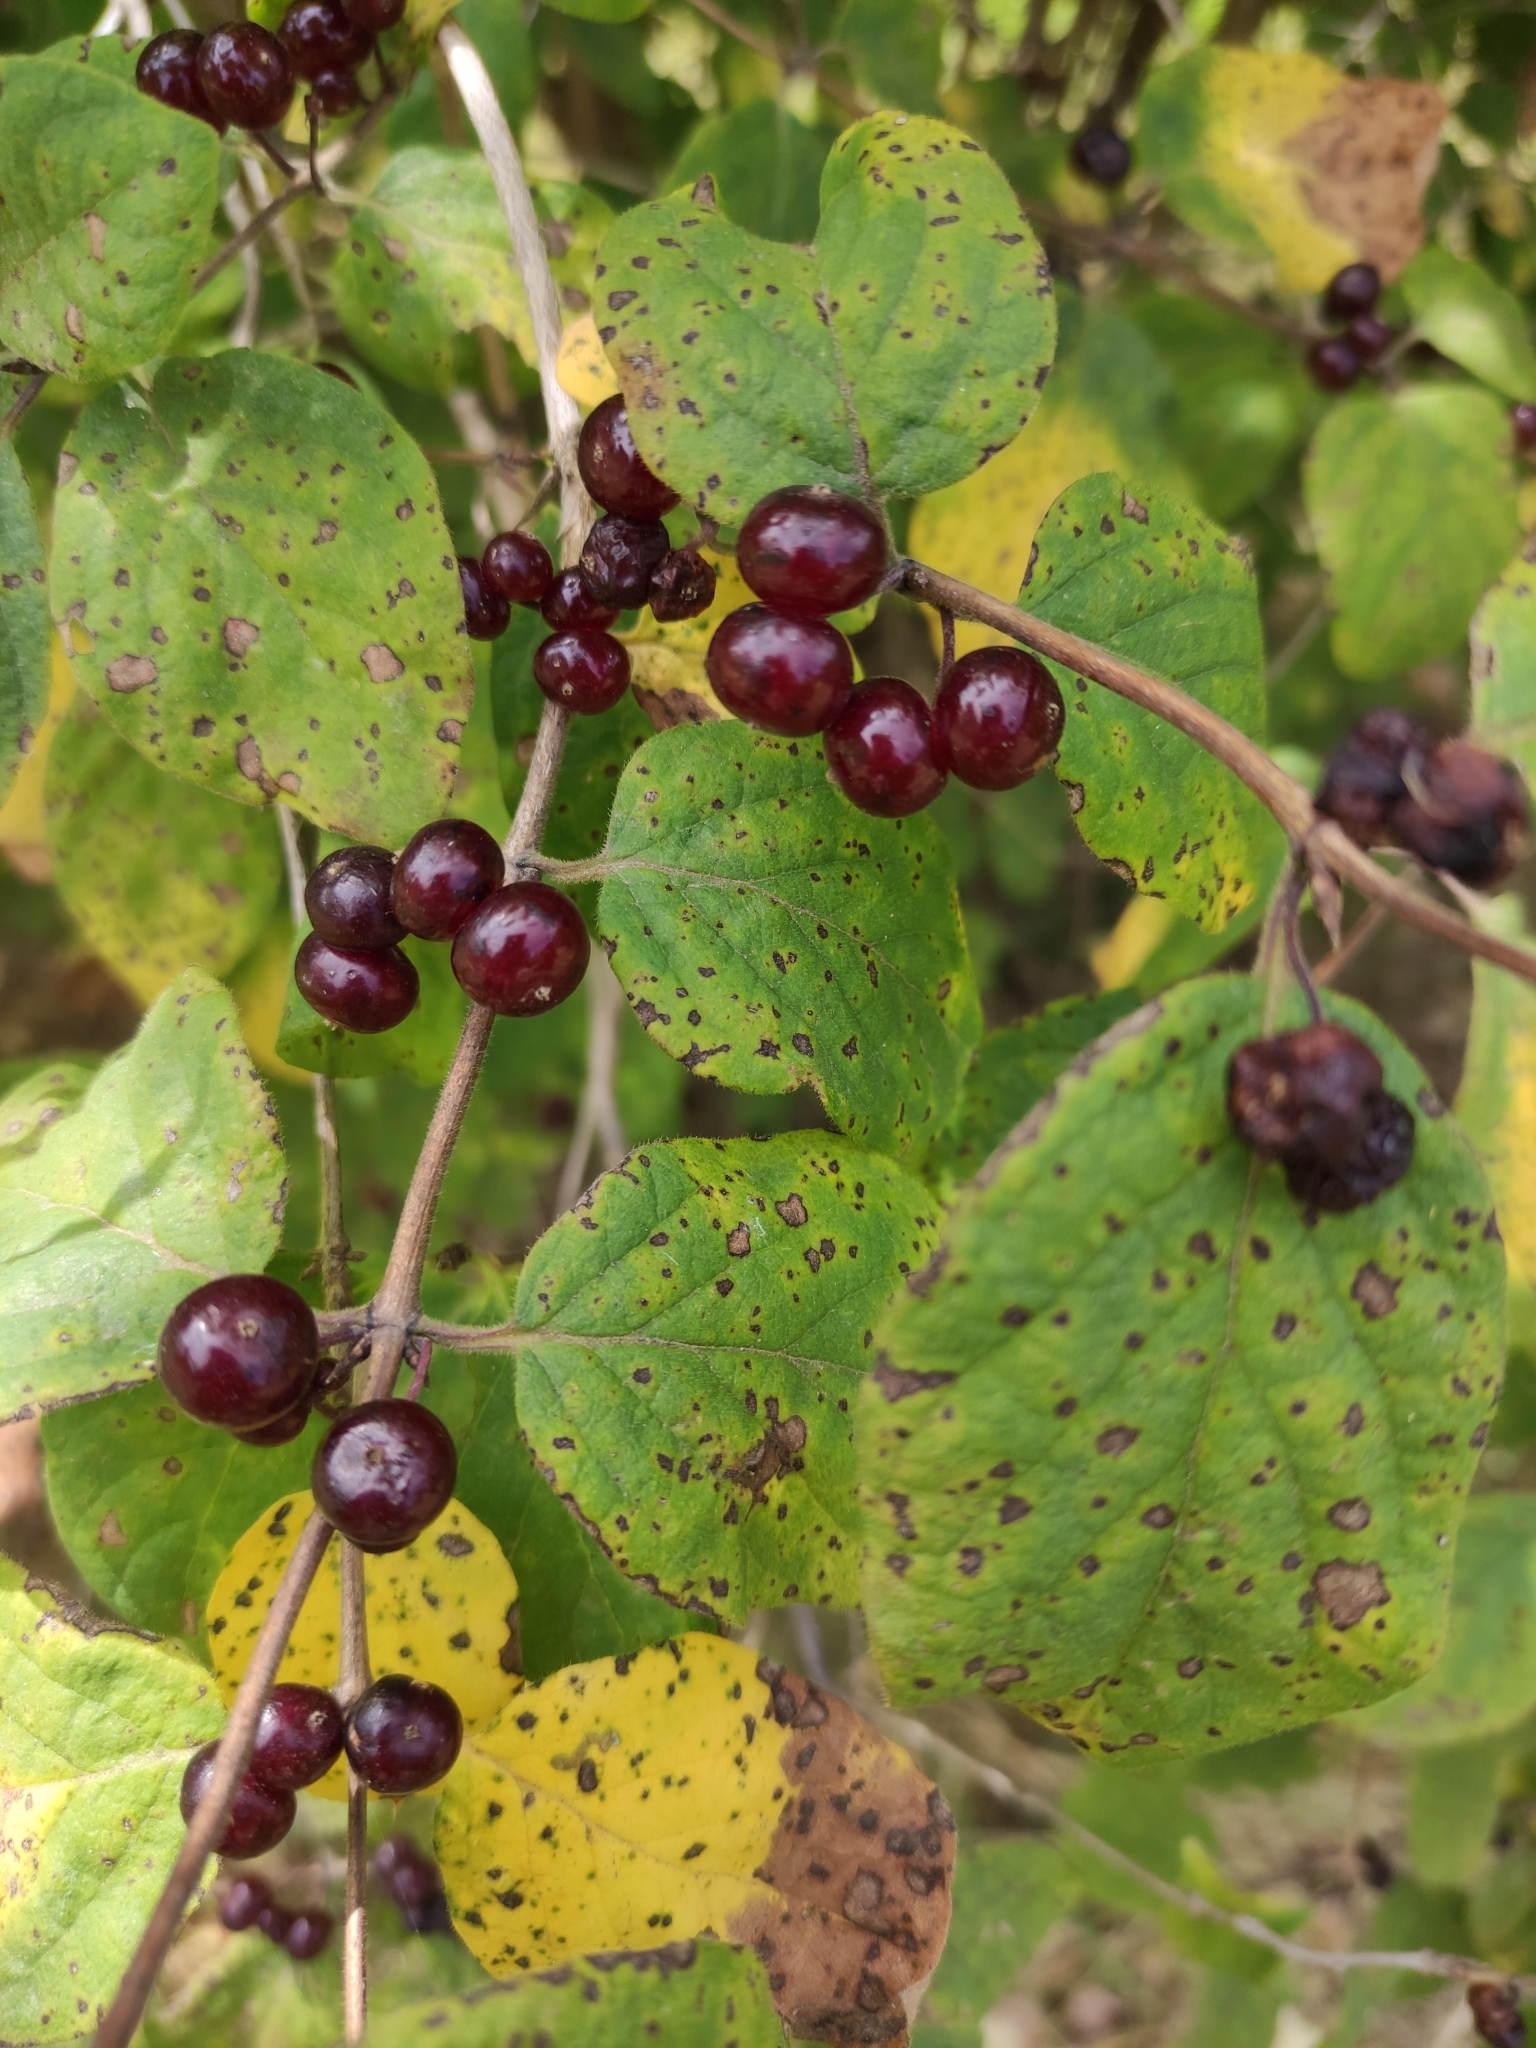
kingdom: Plantae
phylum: Tracheophyta
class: Magnoliopsida
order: Dipsacales
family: Caprifoliaceae
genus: Lonicera
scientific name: Lonicera xylosteum
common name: Fly honeysuckle
